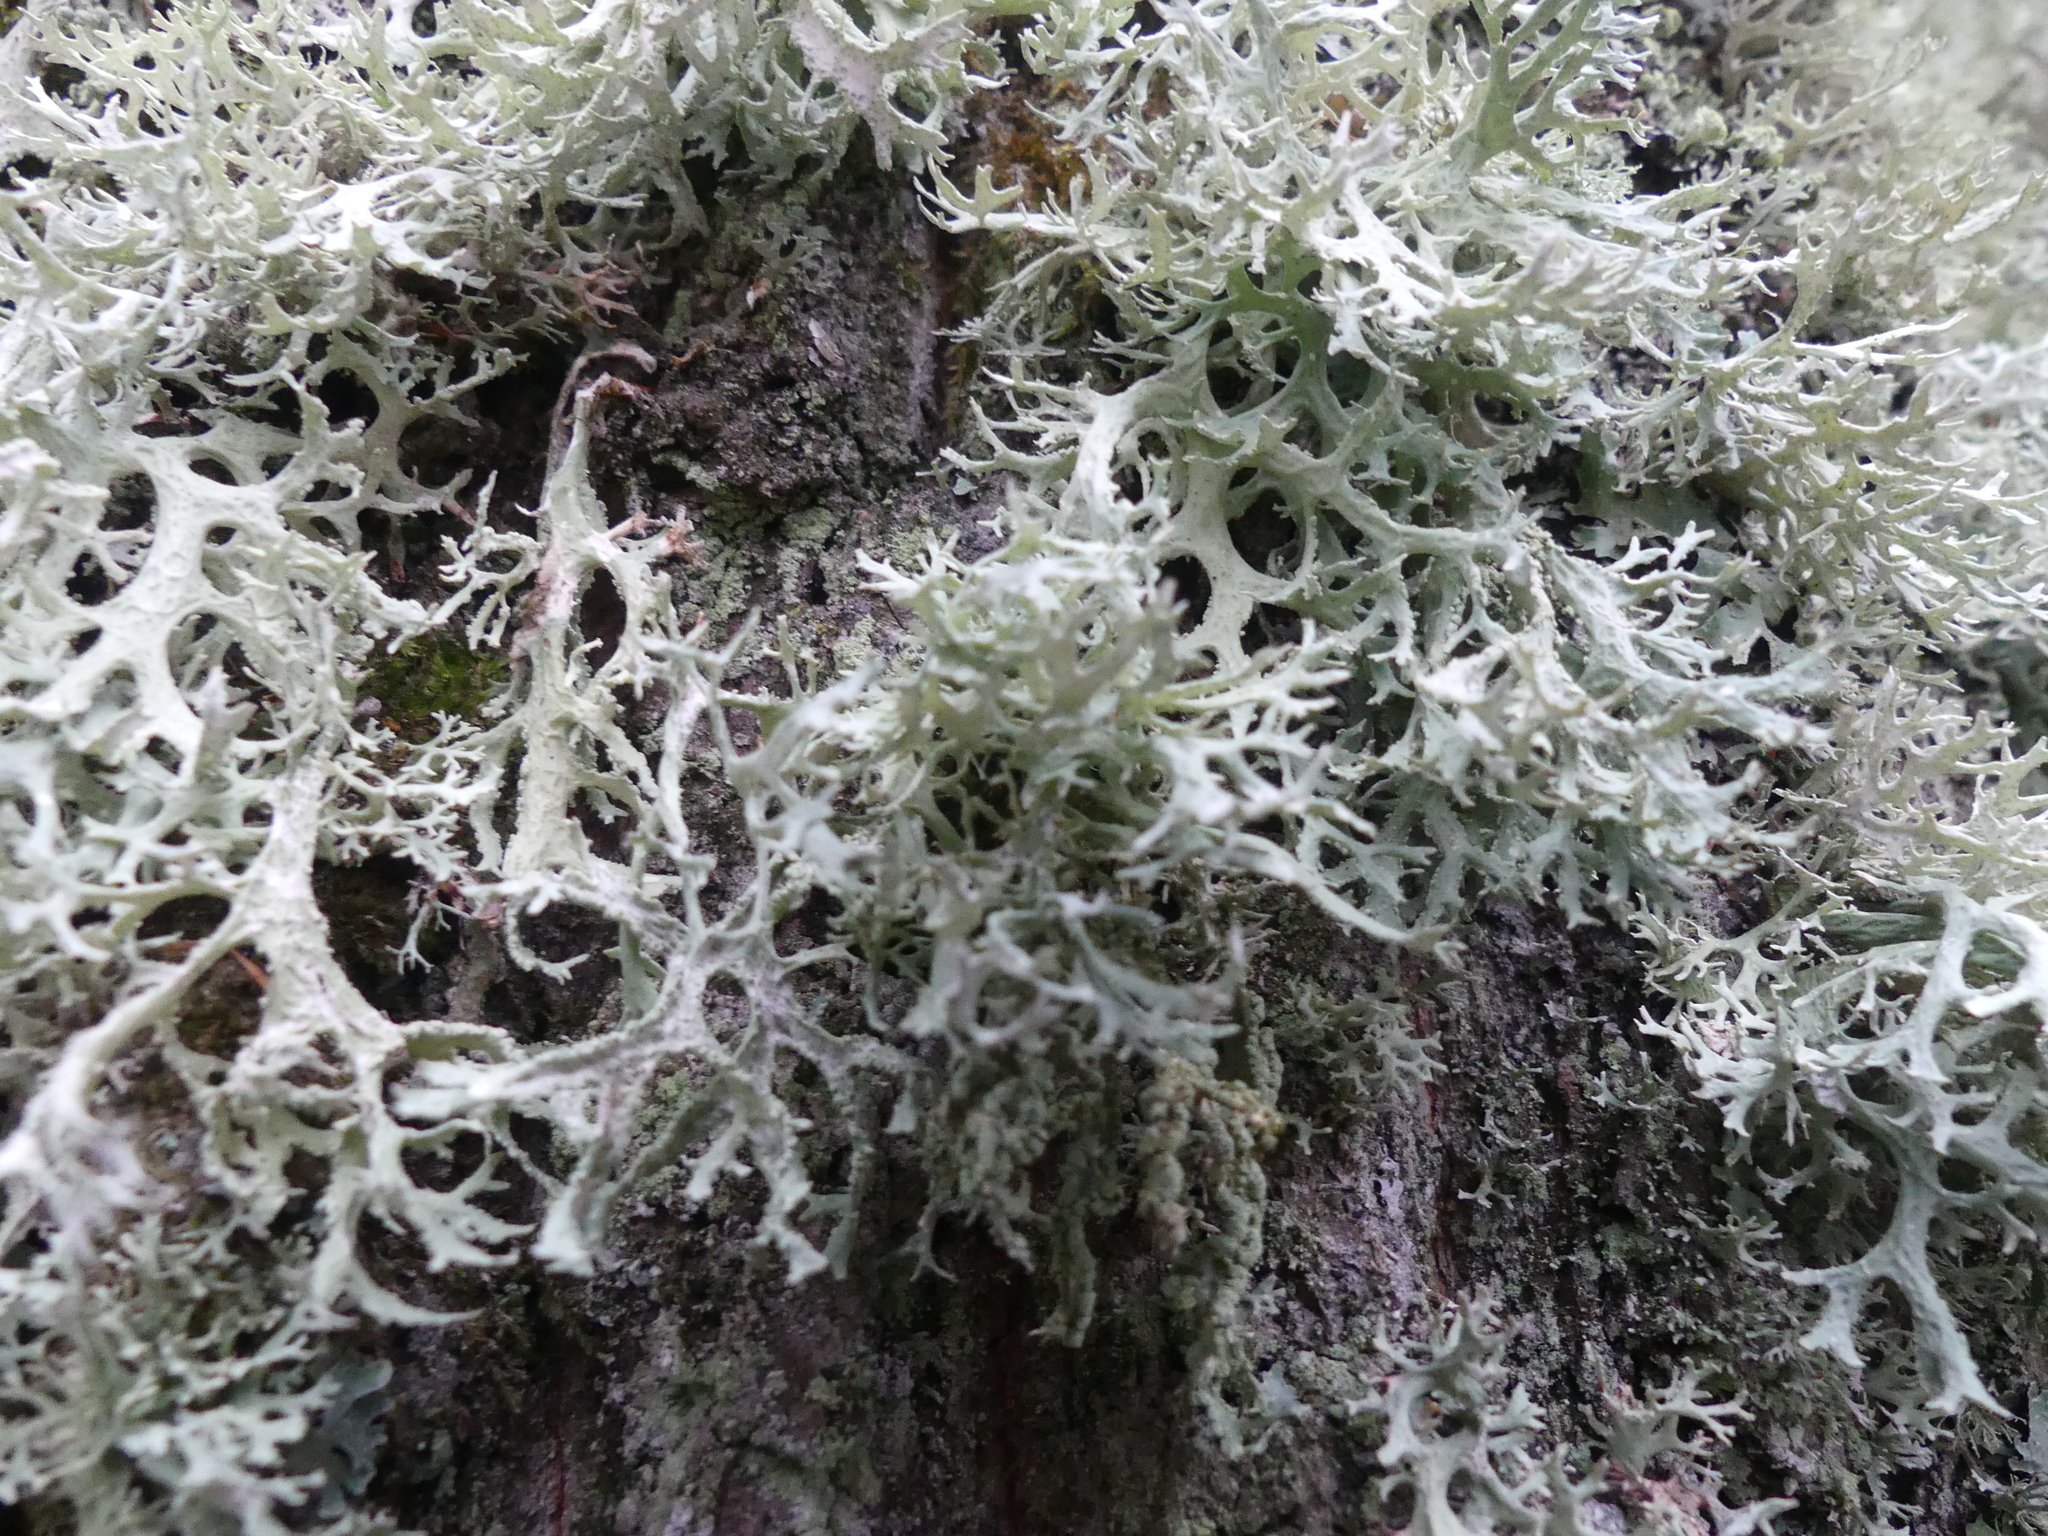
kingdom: Fungi
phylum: Ascomycota
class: Lecanoromycetes
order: Lecanorales
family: Parmeliaceae
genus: Evernia
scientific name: Evernia prunastri
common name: Oak moss
